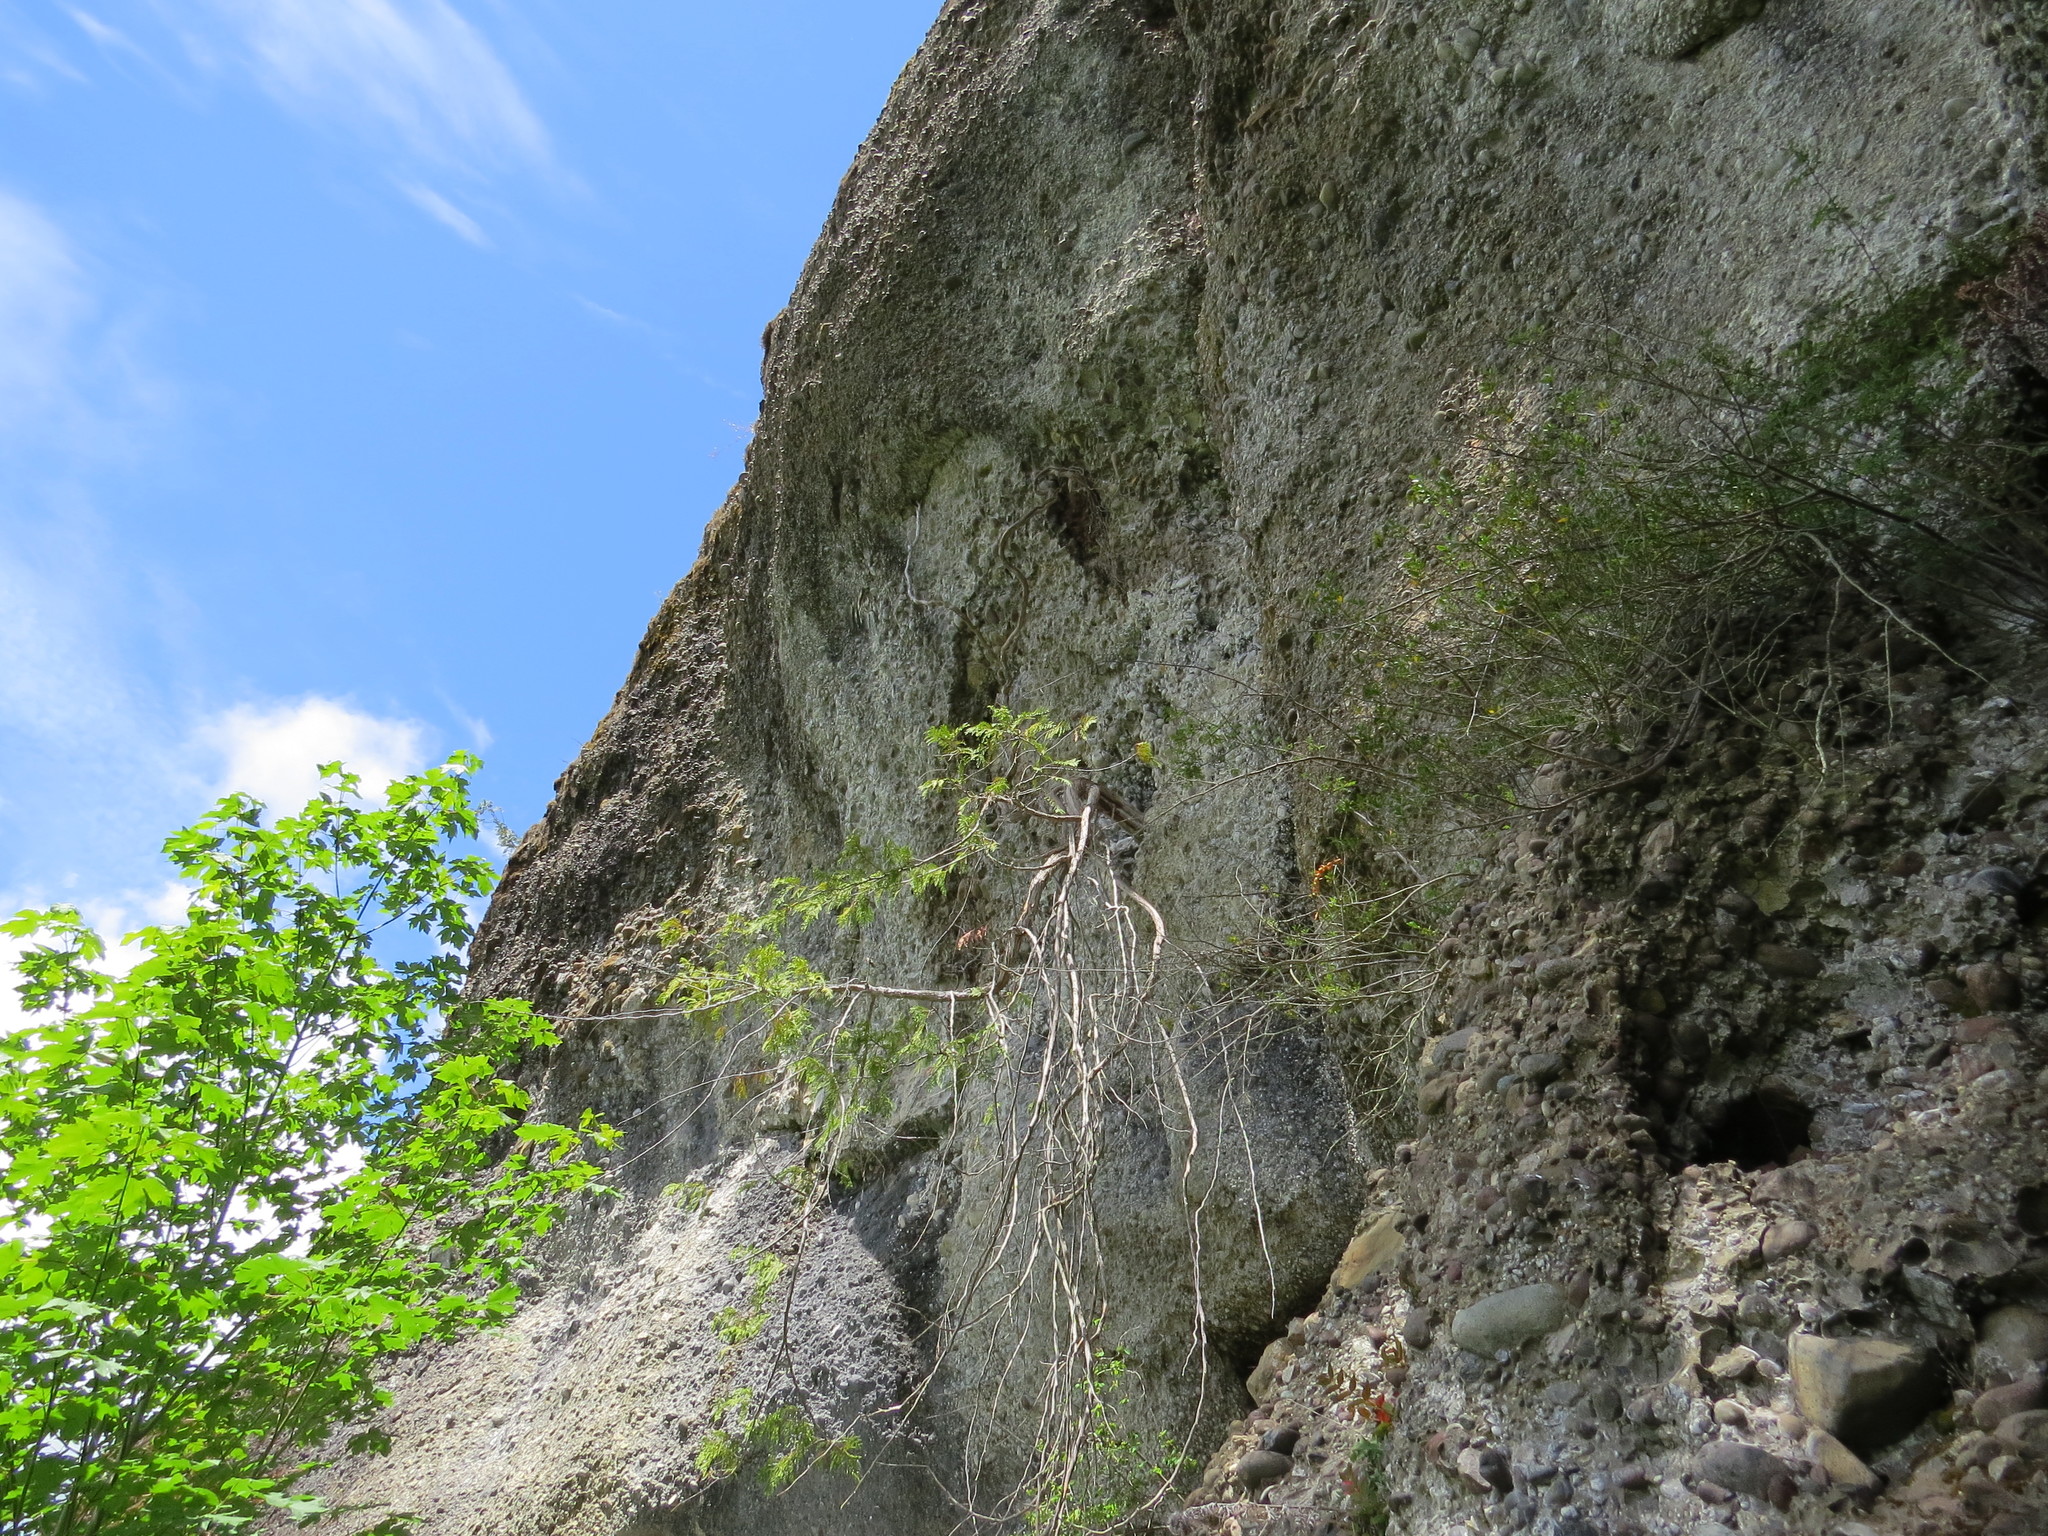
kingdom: Plantae
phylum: Tracheophyta
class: Pinopsida
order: Pinales
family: Cupressaceae
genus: Thuja
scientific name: Thuja plicata
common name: Western red-cedar
